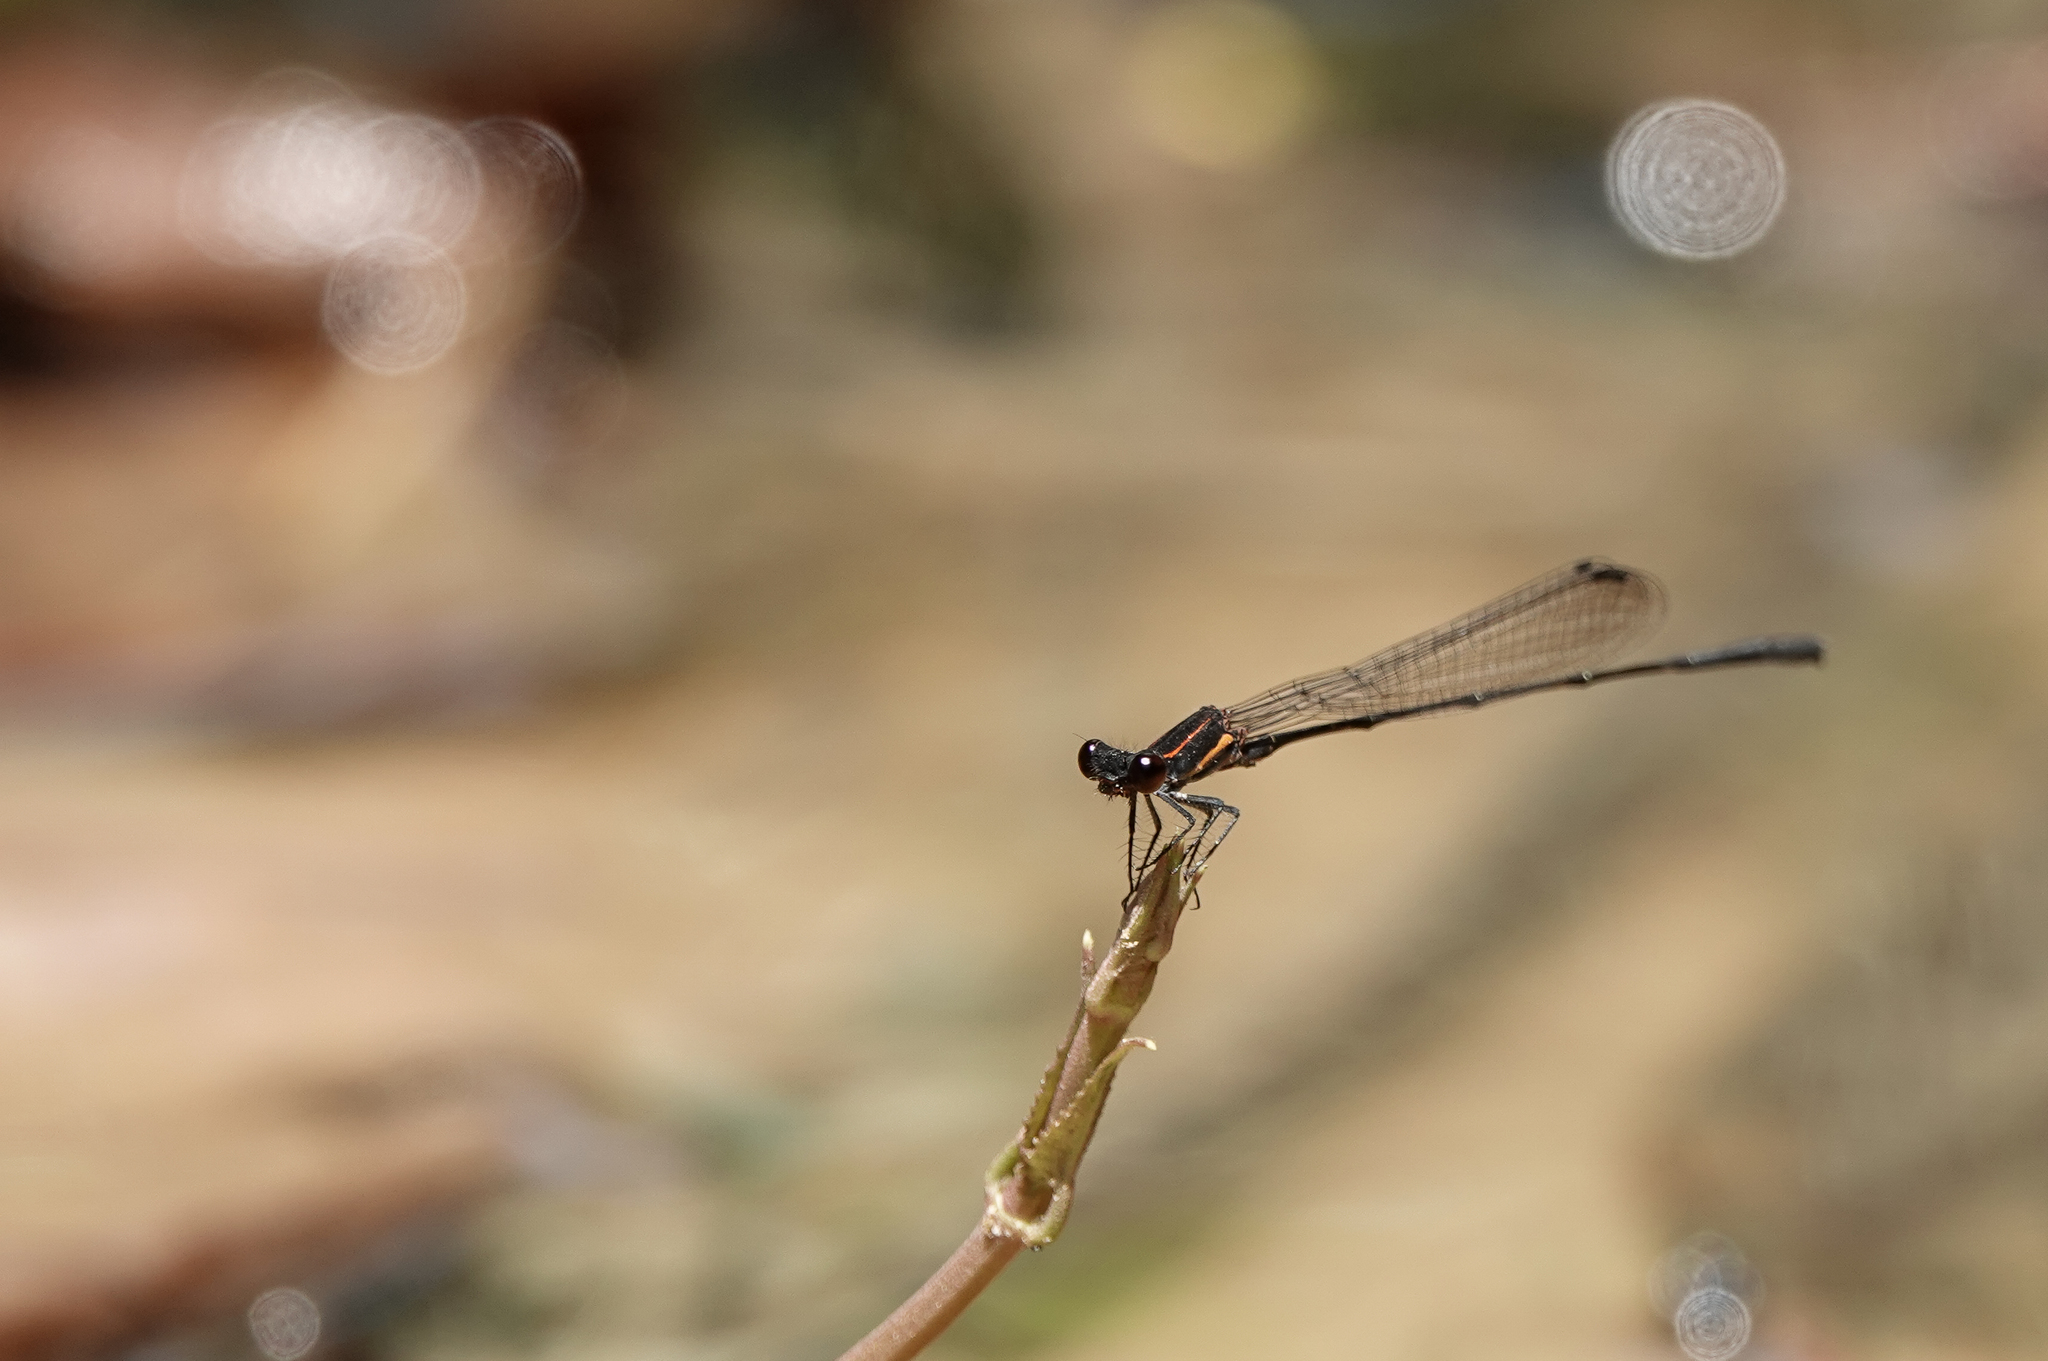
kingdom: Animalia
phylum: Arthropoda
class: Insecta
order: Odonata
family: Platycnemididae
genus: Prodasineura
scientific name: Prodasineura verticalis
